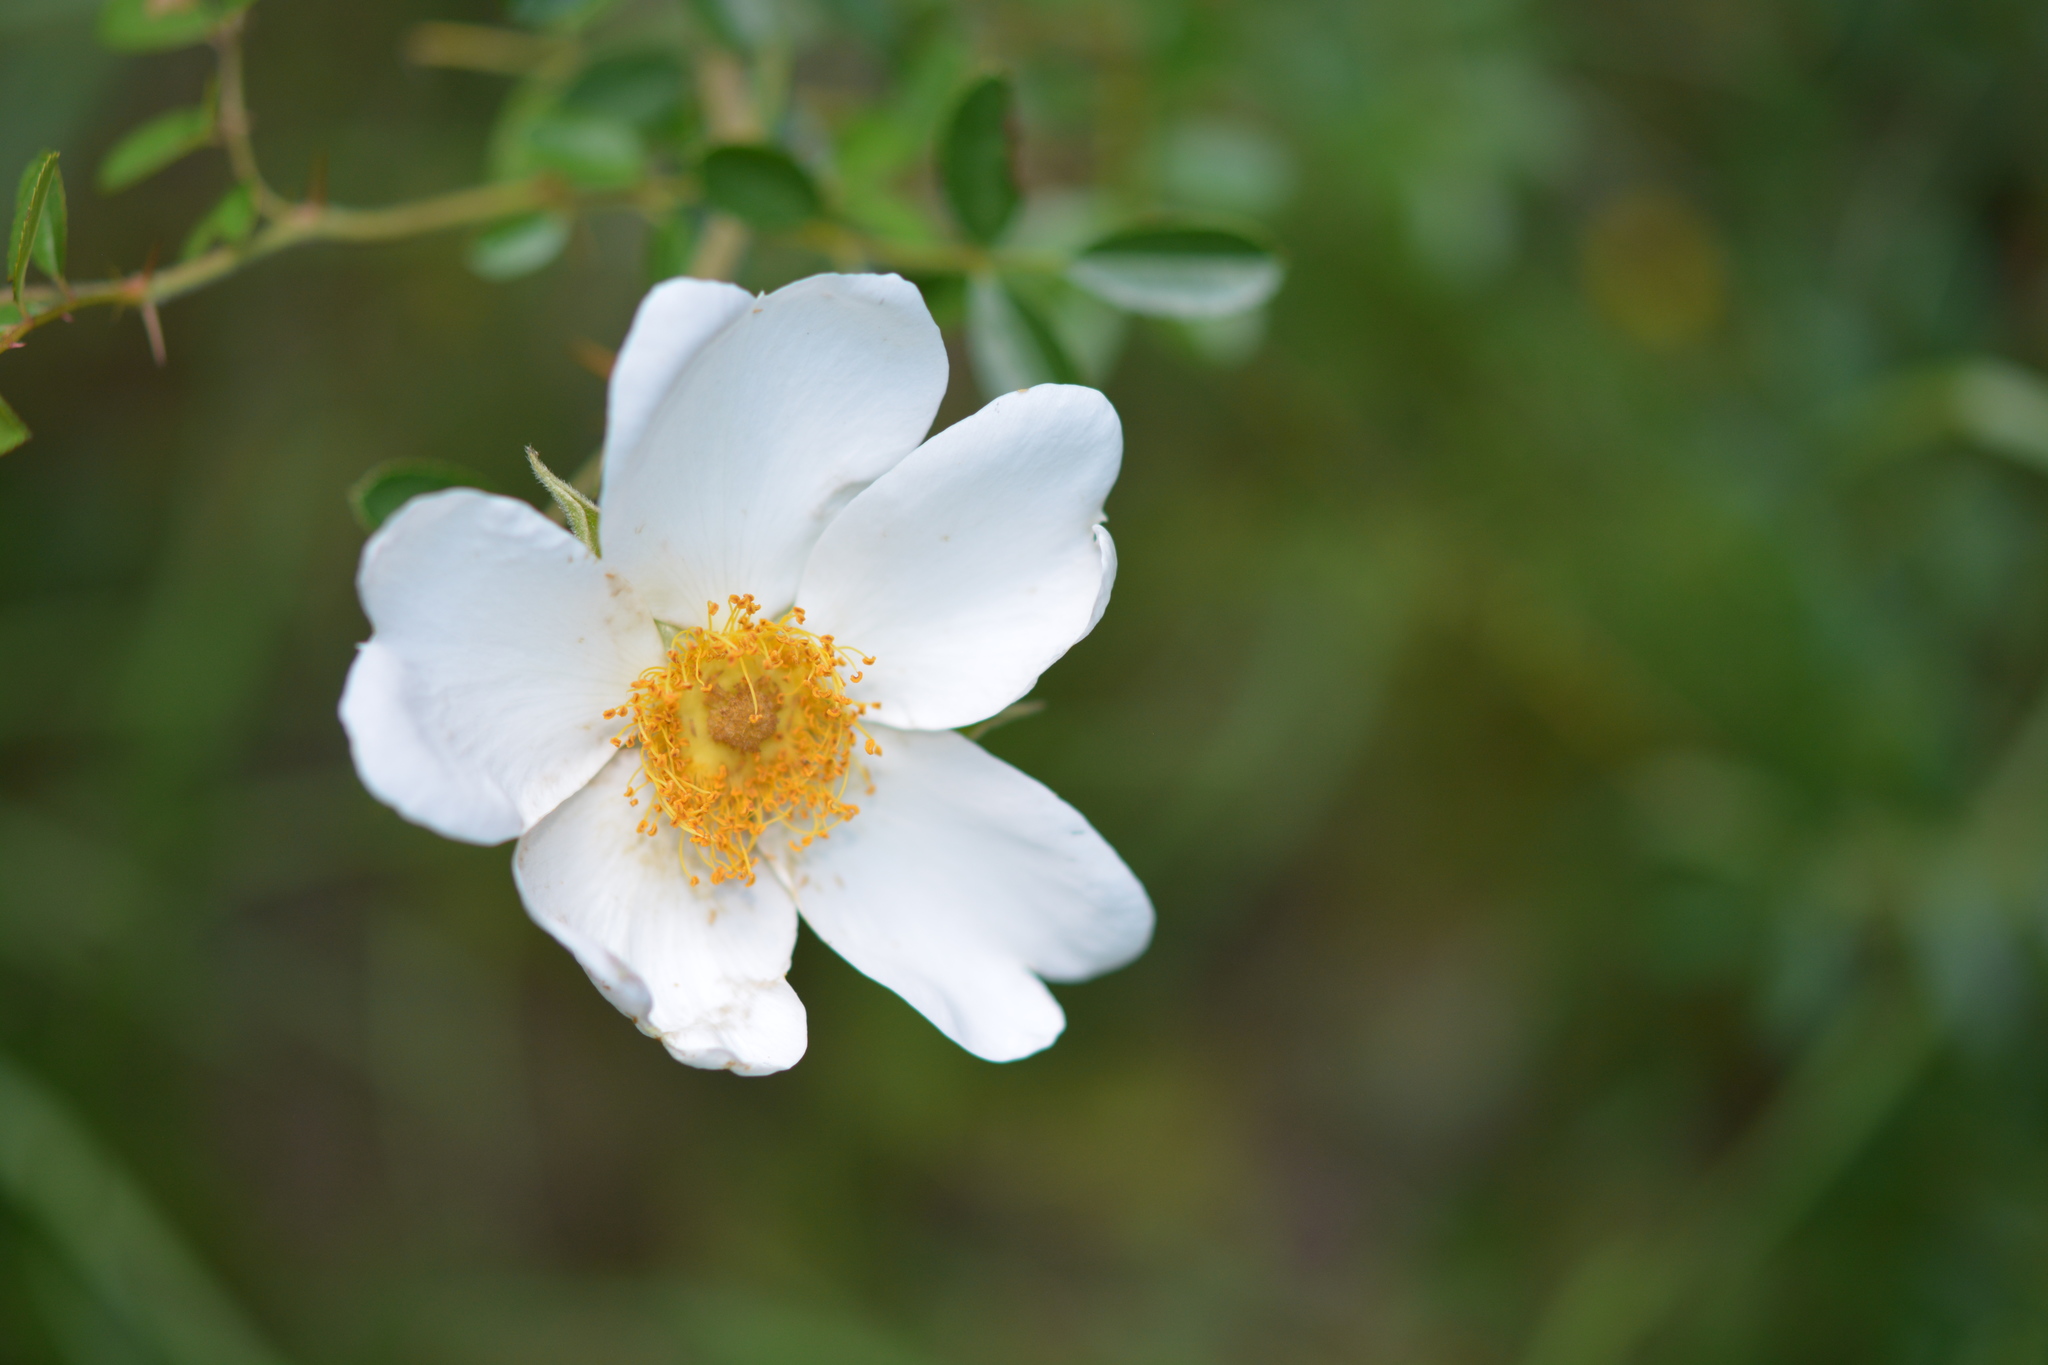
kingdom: Plantae
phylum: Tracheophyta
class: Magnoliopsida
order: Rosales
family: Rosaceae
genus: Rosa
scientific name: Rosa bracteata
